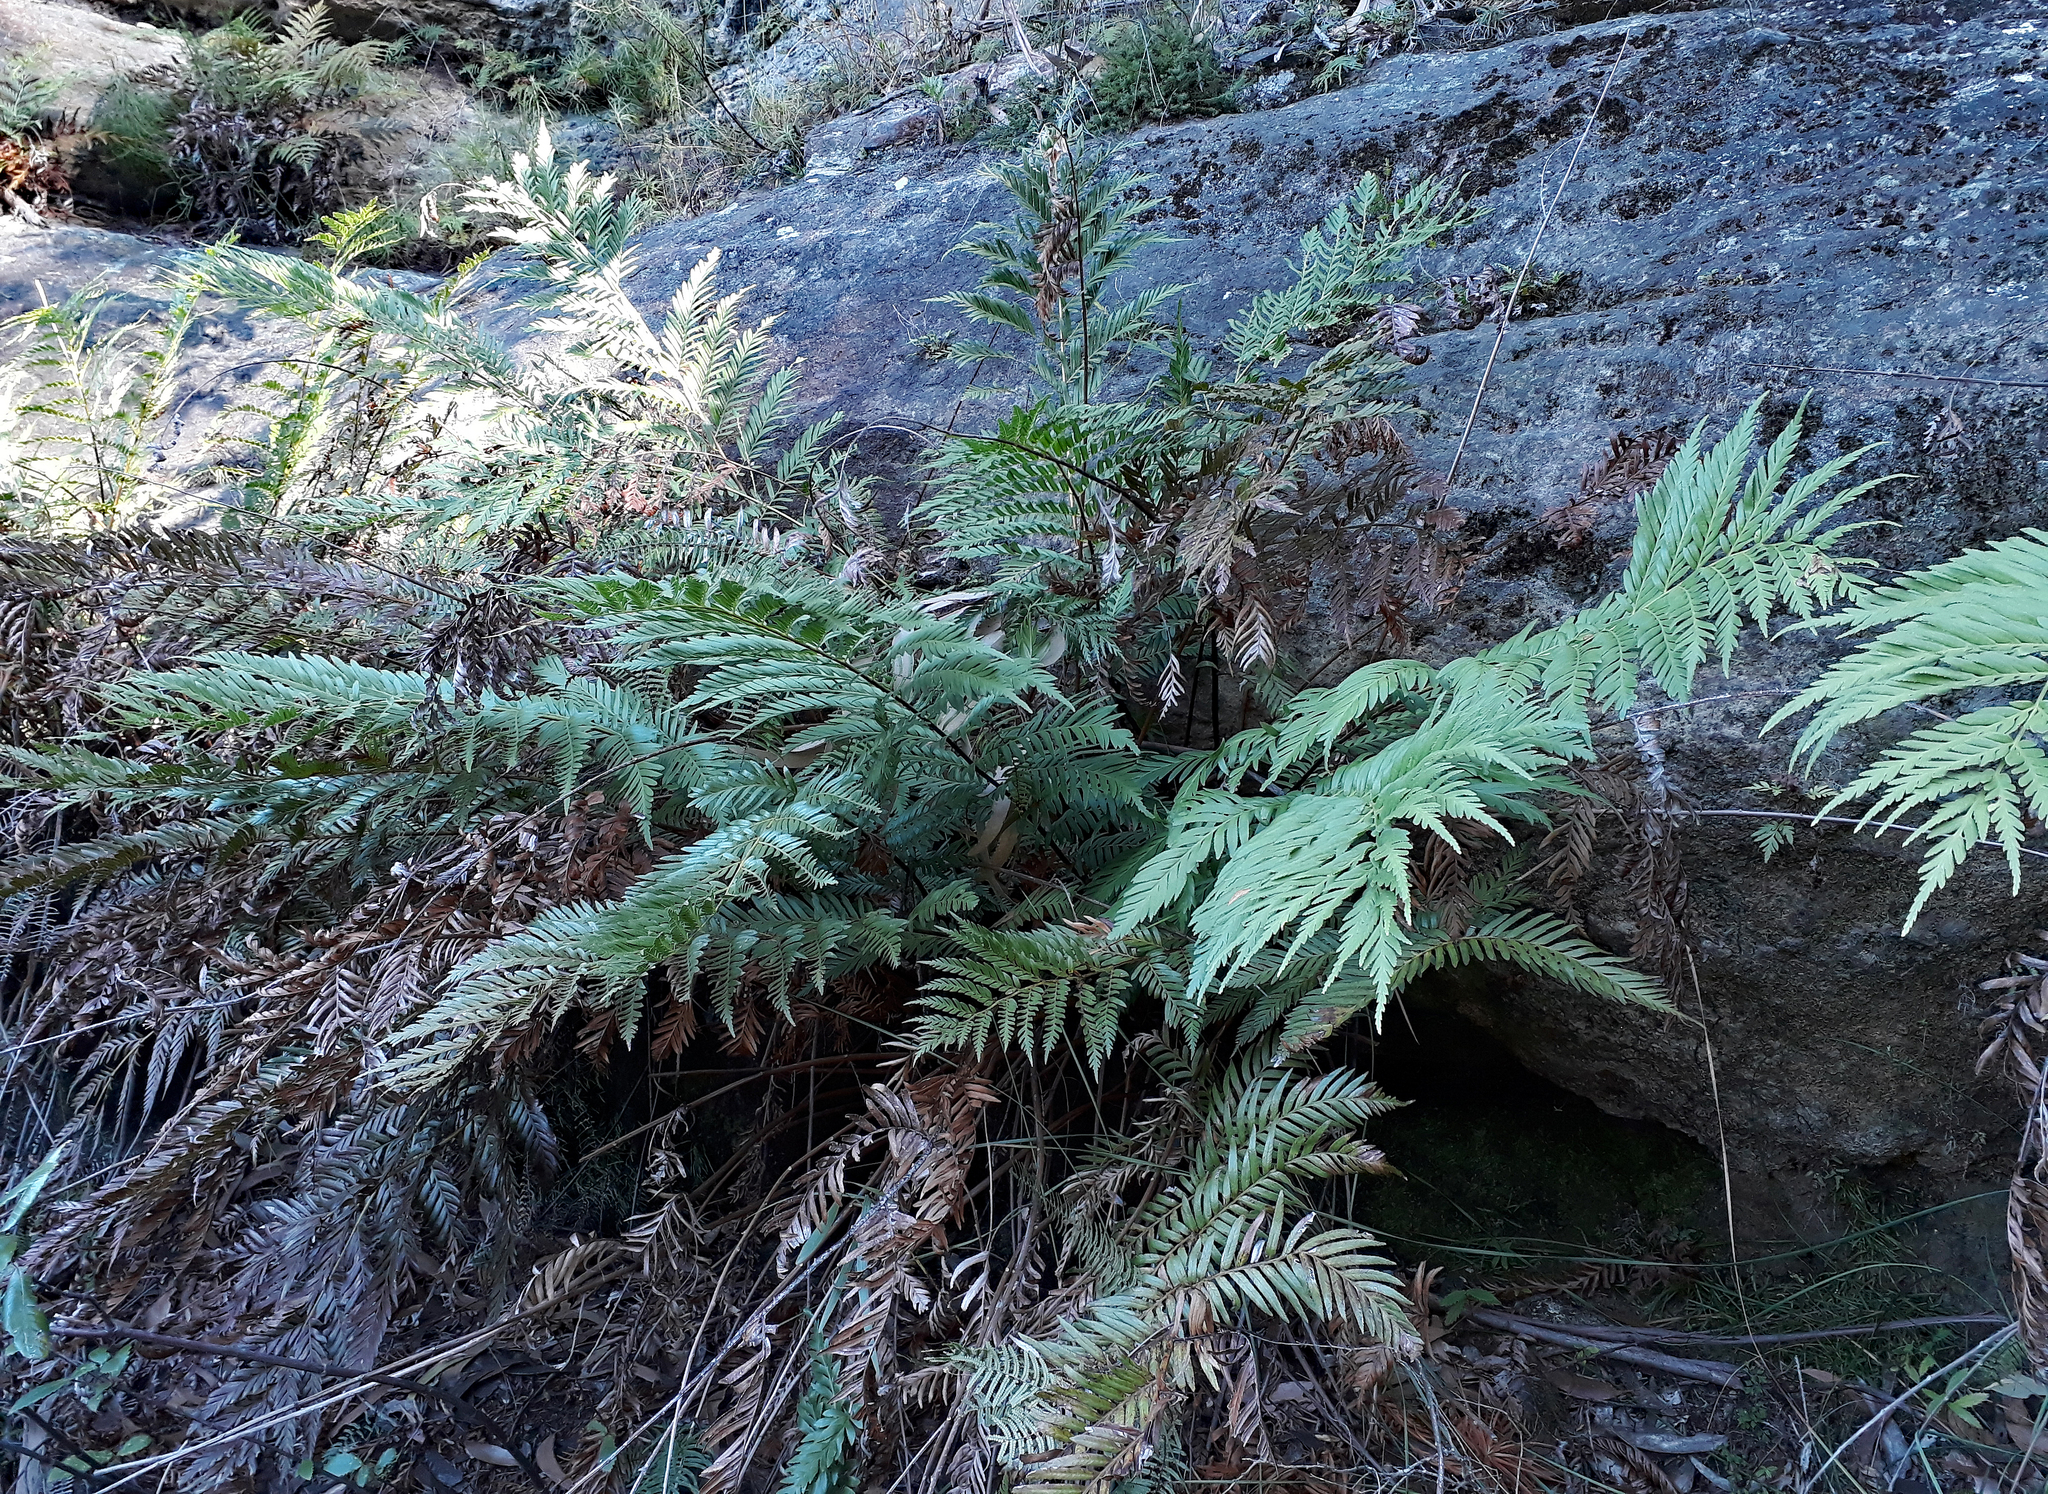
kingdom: Plantae
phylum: Tracheophyta
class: Polypodiopsida
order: Osmundales
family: Osmundaceae
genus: Todea
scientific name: Todea barbara
